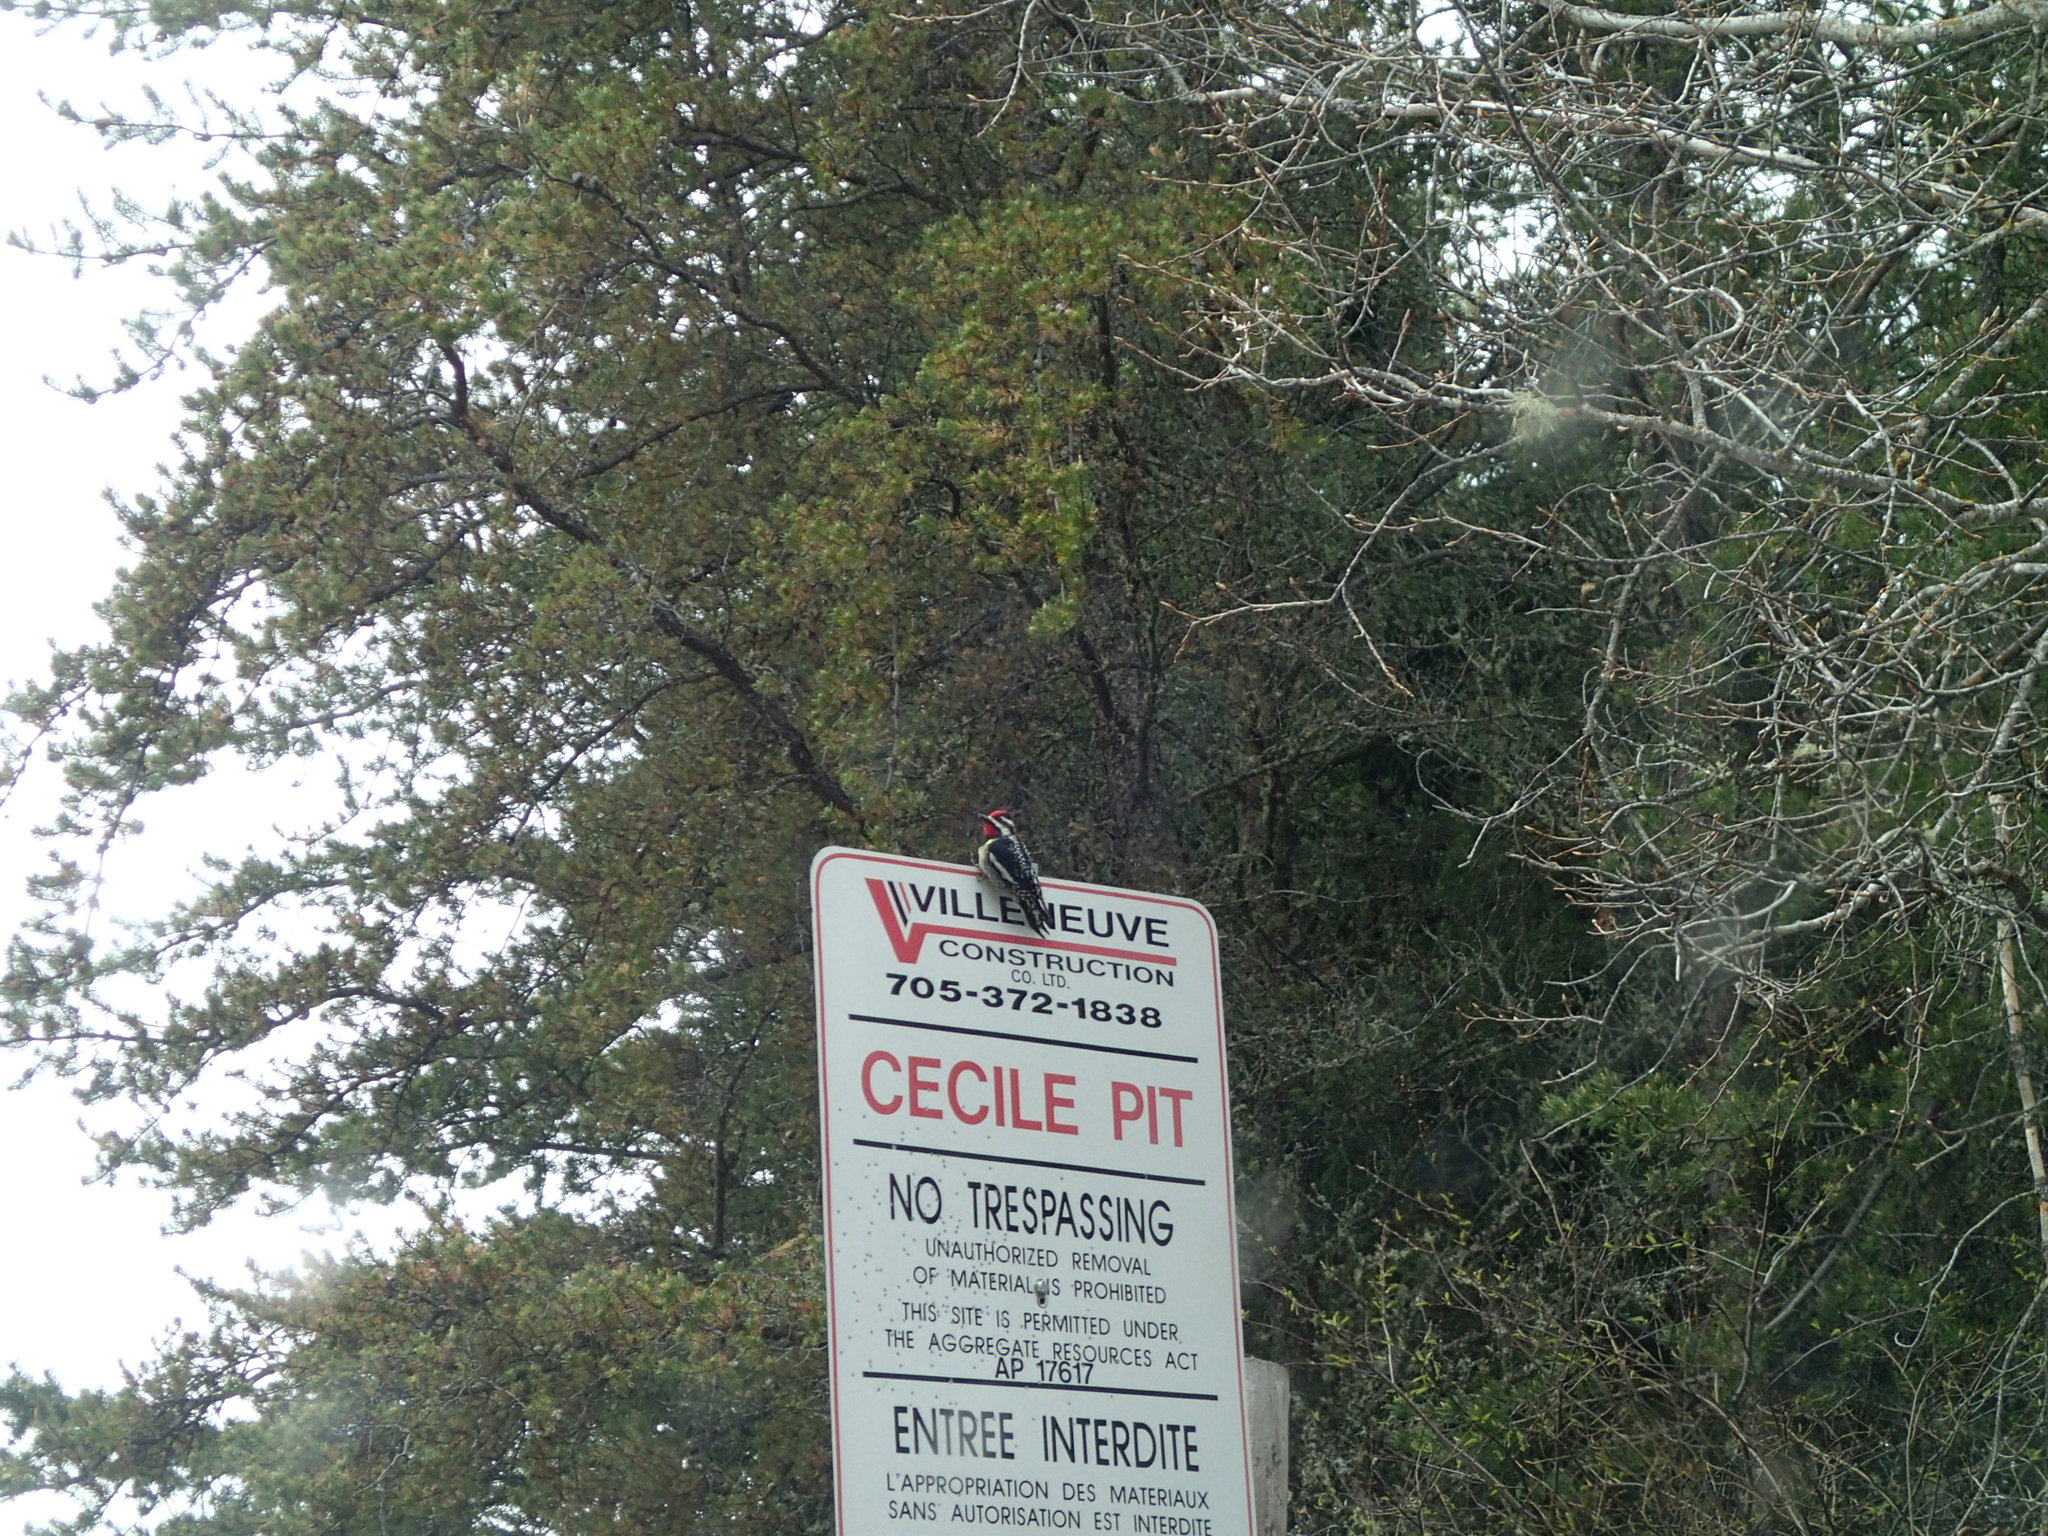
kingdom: Animalia
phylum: Chordata
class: Aves
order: Piciformes
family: Picidae
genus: Sphyrapicus
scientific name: Sphyrapicus varius
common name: Yellow-bellied sapsucker
